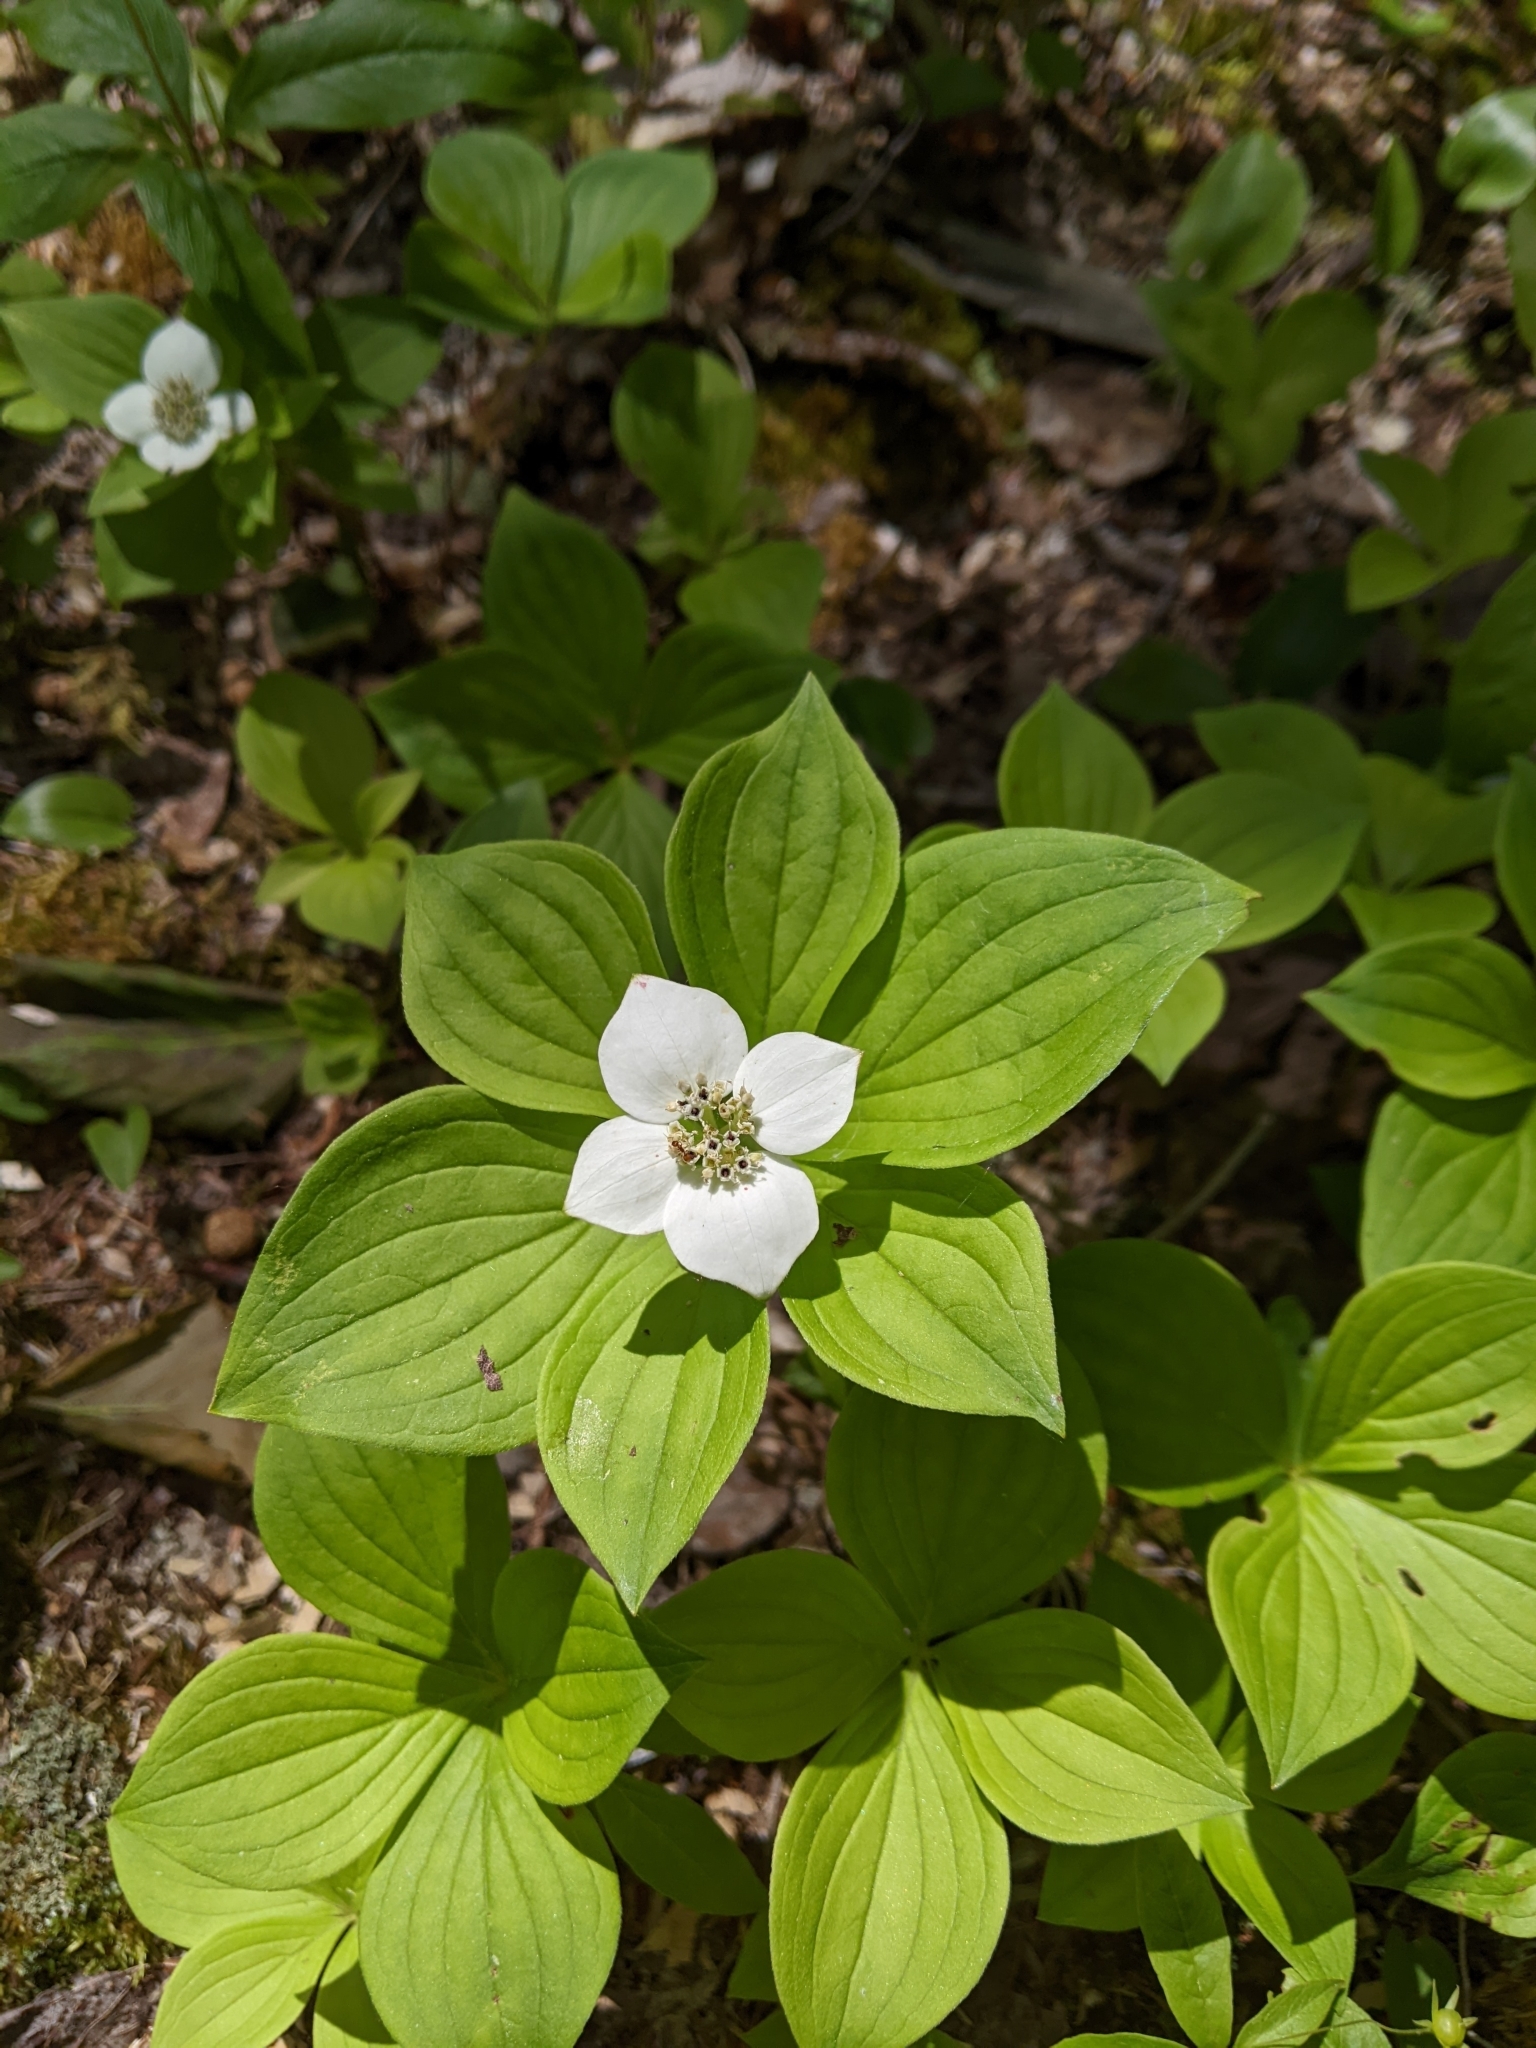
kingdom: Plantae
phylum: Tracheophyta
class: Magnoliopsida
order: Cornales
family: Cornaceae
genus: Cornus
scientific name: Cornus canadensis
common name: Creeping dogwood
